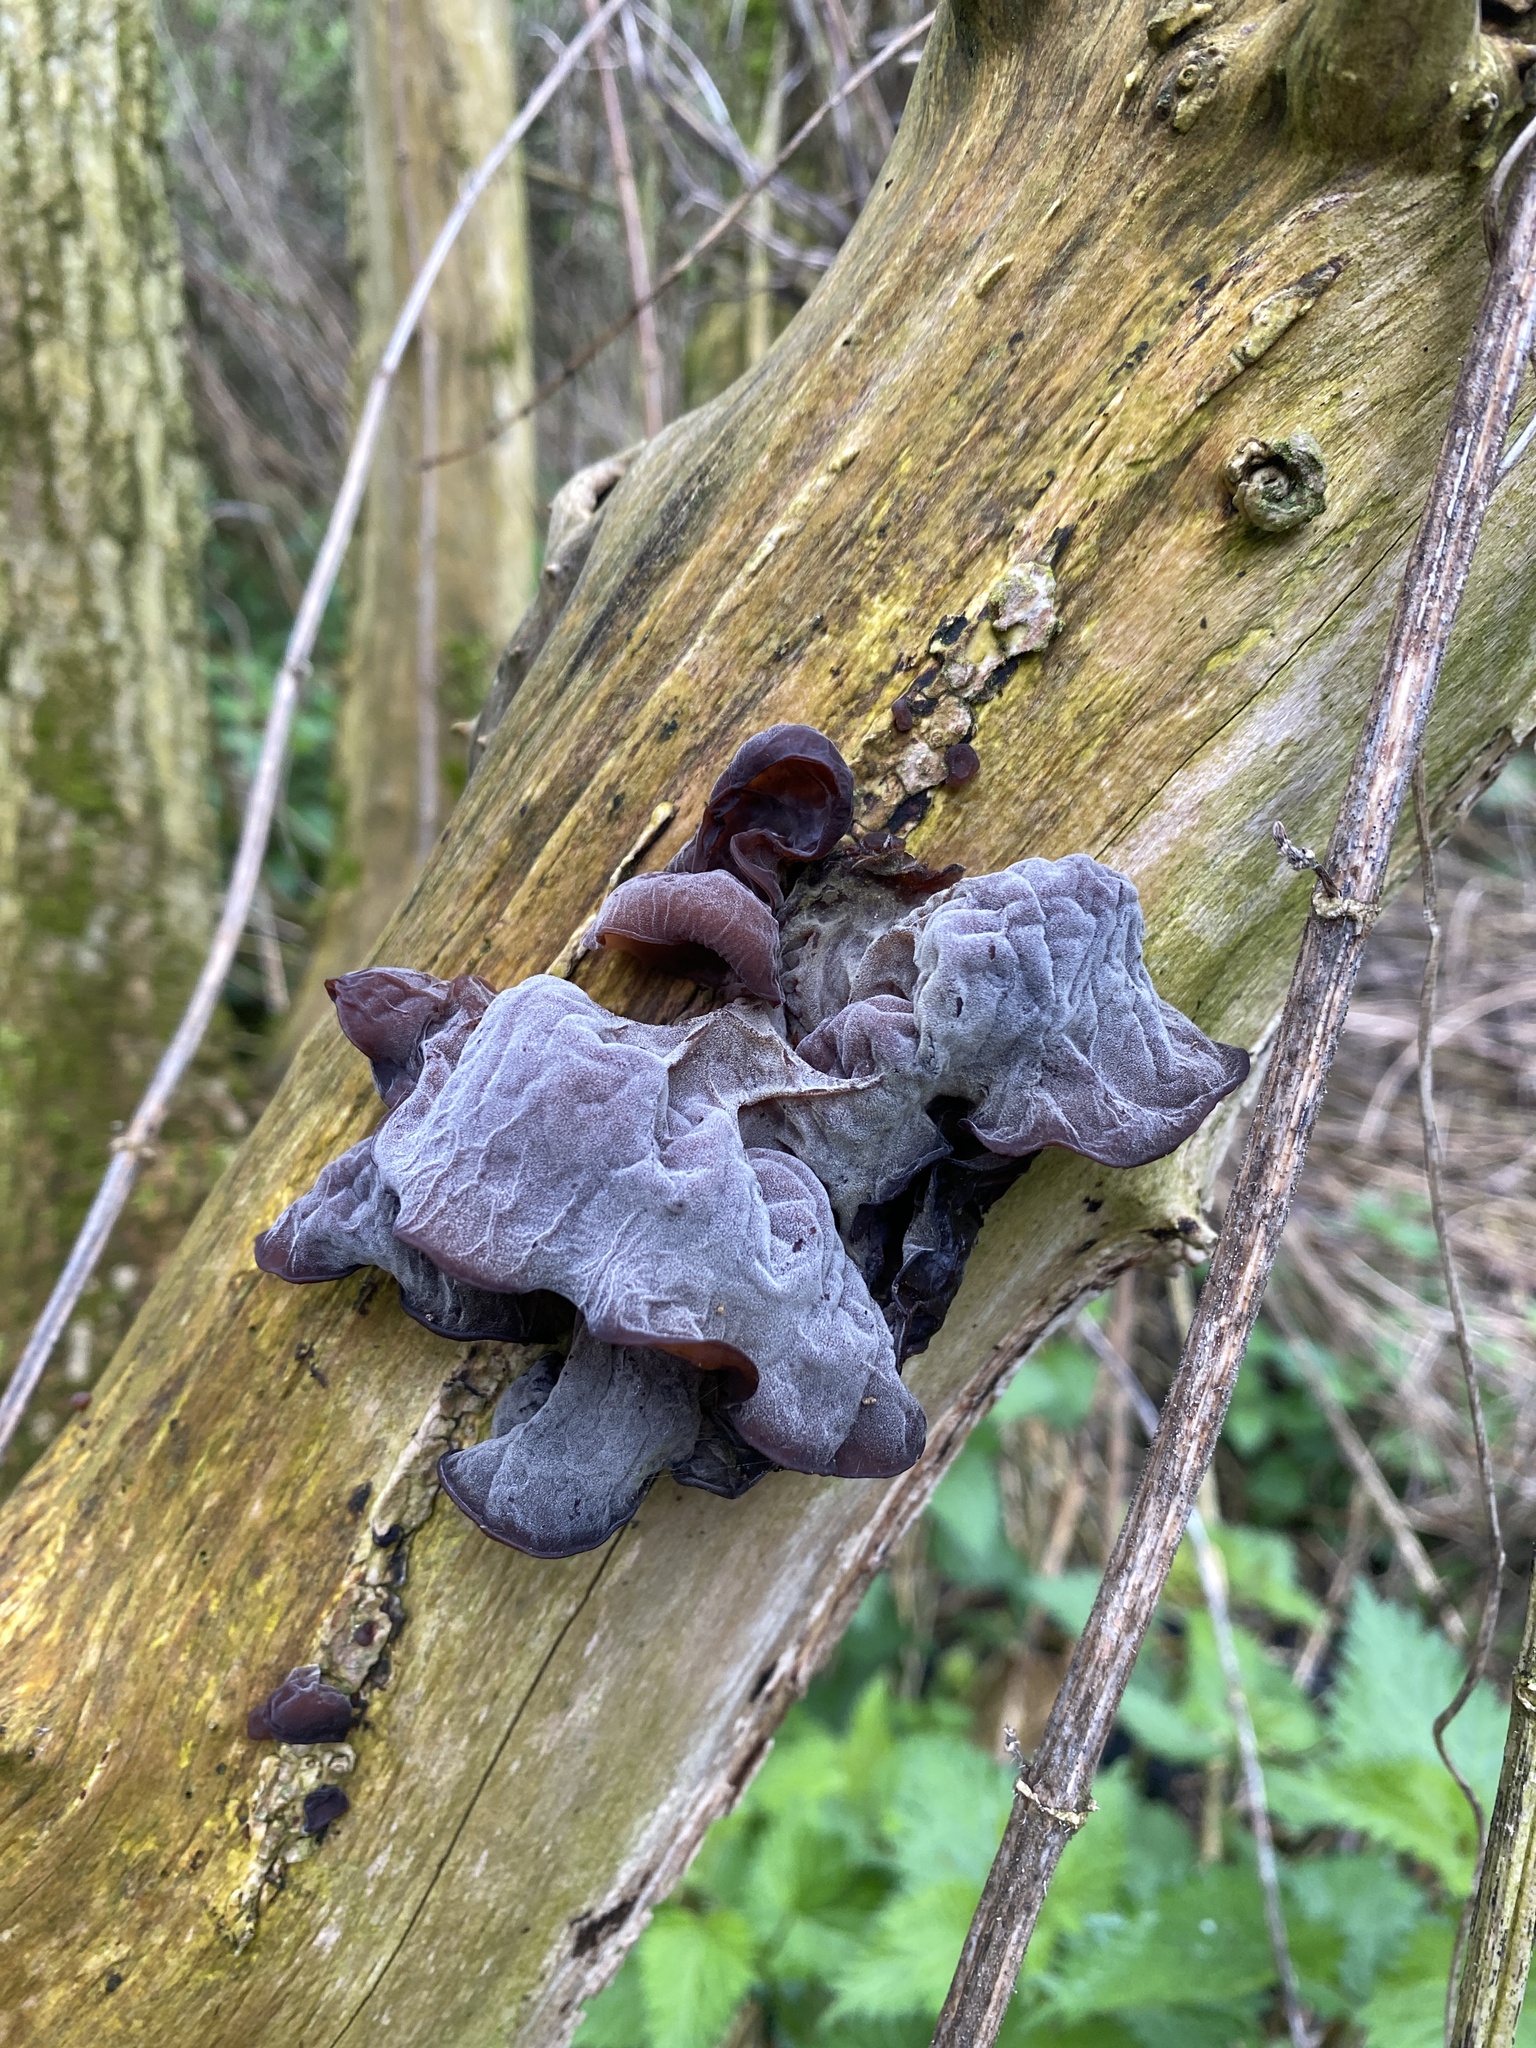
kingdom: Fungi
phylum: Basidiomycota
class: Agaricomycetes
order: Auriculariales
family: Auriculariaceae
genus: Auricularia
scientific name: Auricularia auricula-judae
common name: Jelly ear
